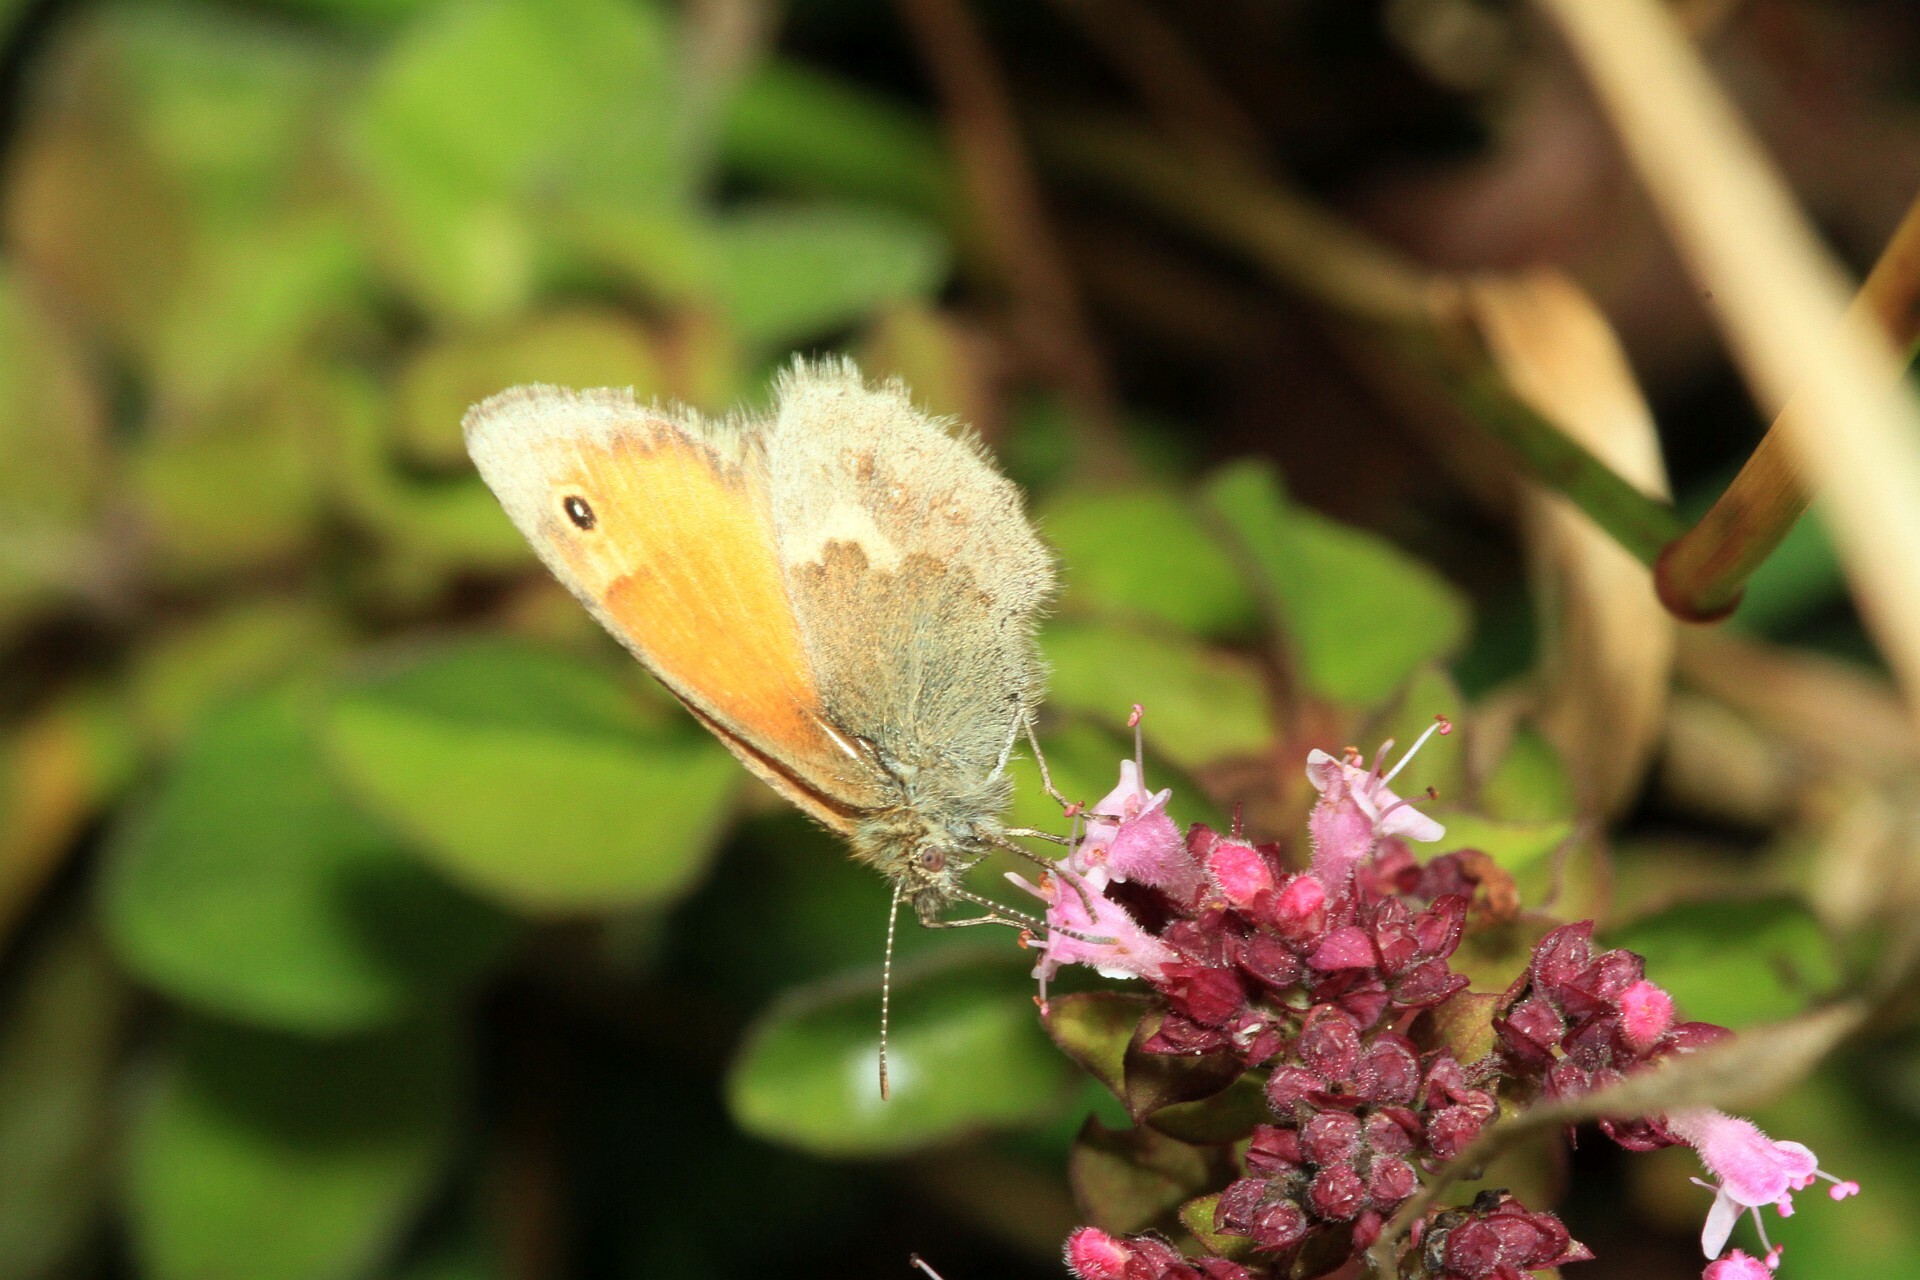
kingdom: Animalia
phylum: Arthropoda
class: Insecta
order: Lepidoptera
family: Nymphalidae
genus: Coenonympha
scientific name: Coenonympha pamphilus
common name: Small heath
